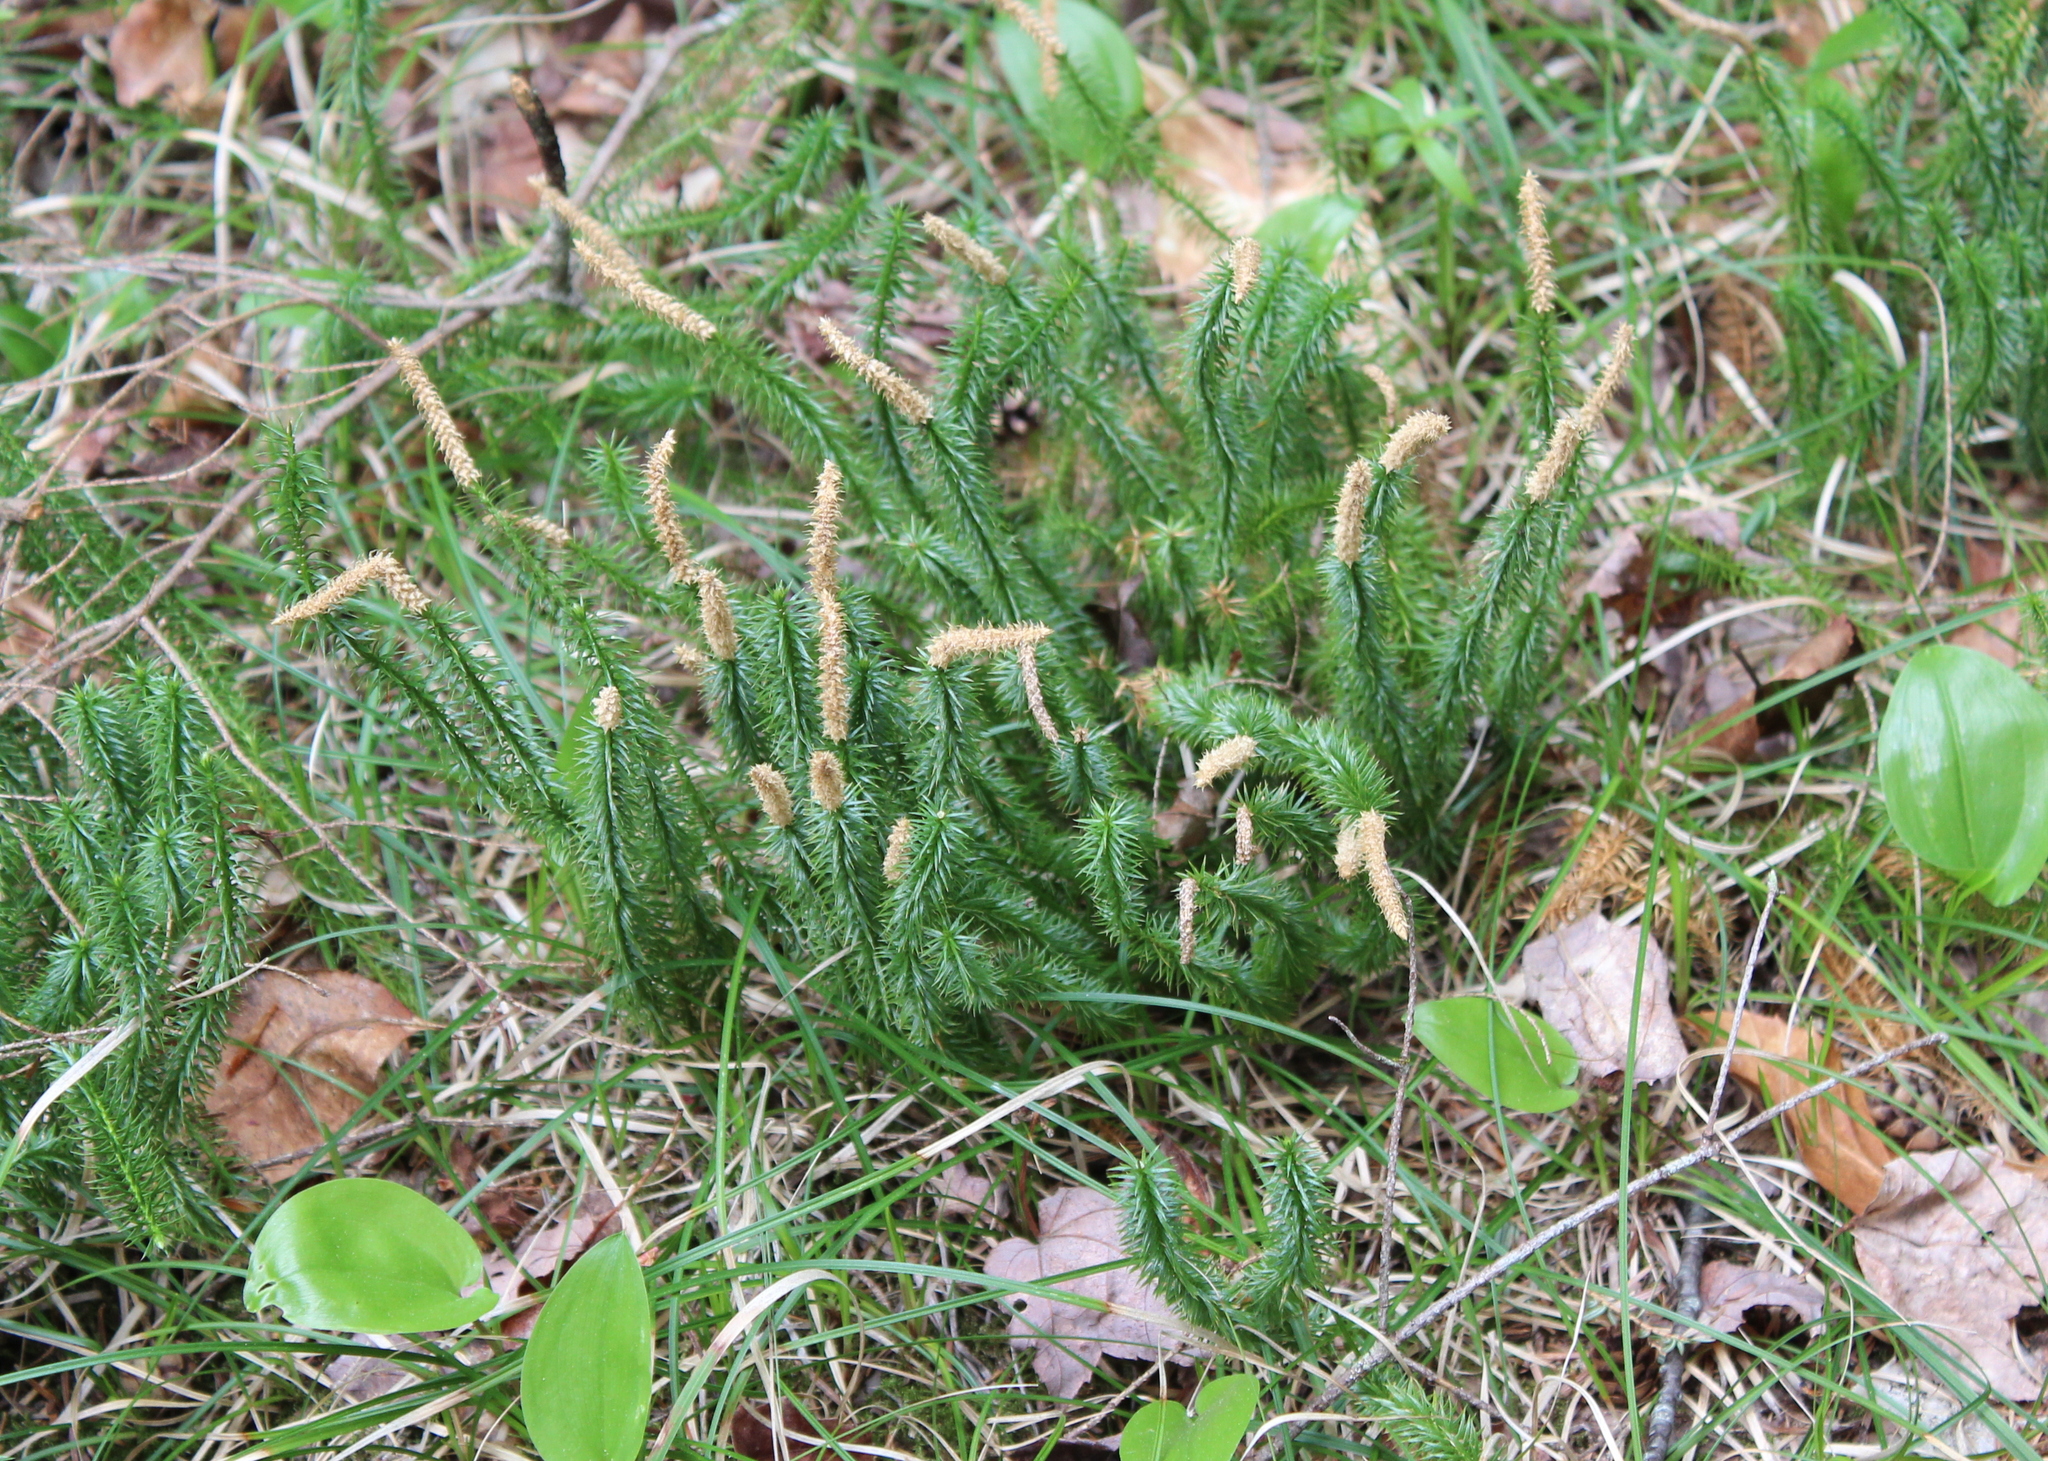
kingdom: Plantae
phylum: Tracheophyta
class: Lycopodiopsida
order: Lycopodiales
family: Lycopodiaceae
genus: Spinulum
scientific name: Spinulum annotinum
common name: Interrupted club-moss
